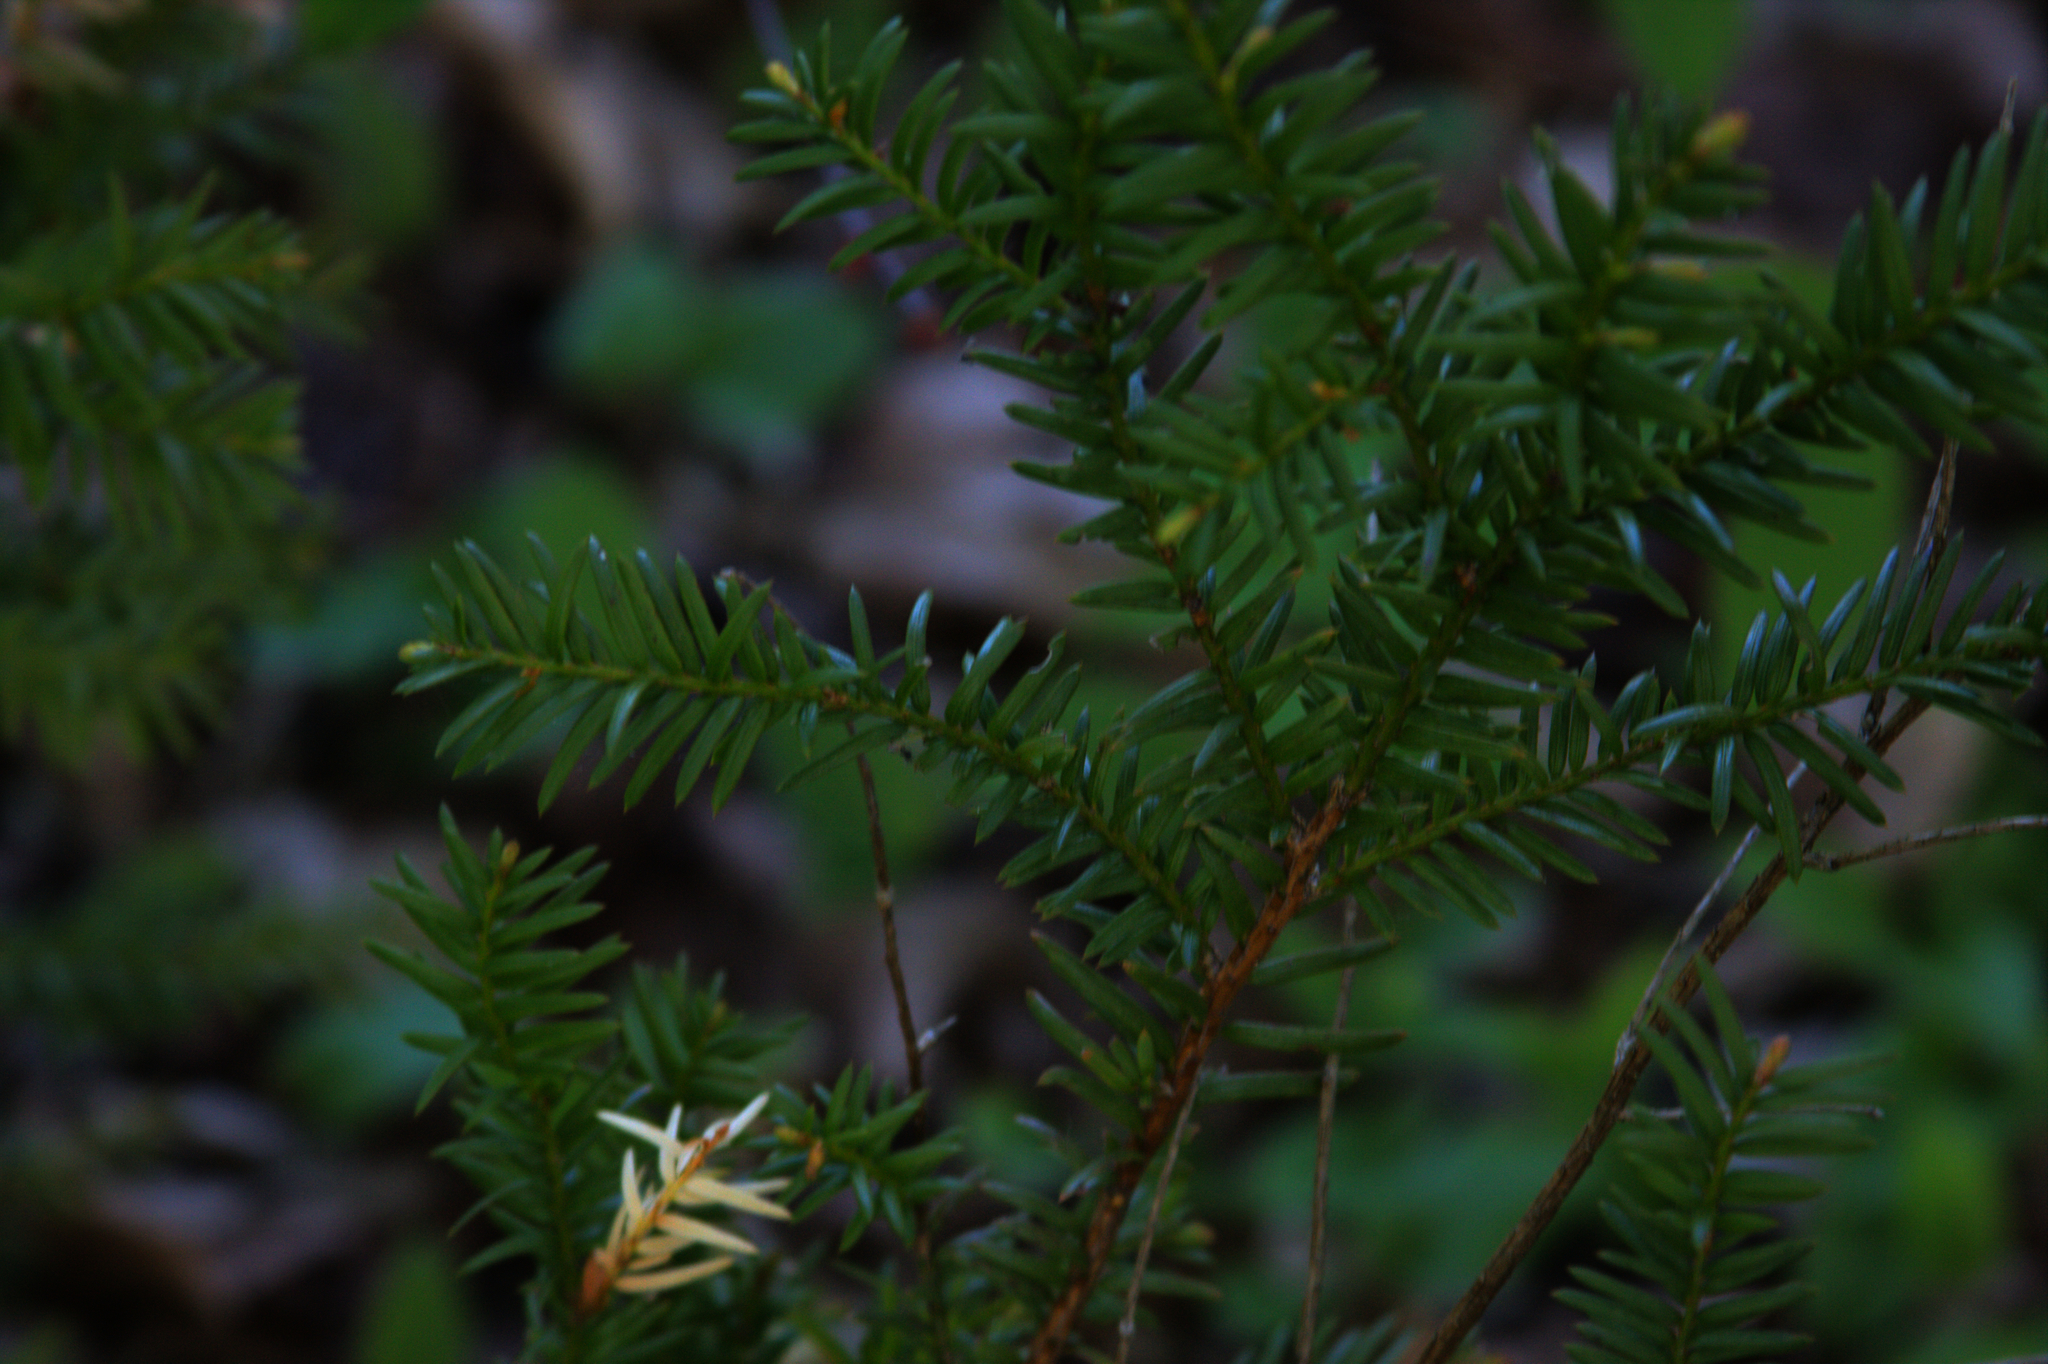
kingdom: Plantae
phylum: Tracheophyta
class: Pinopsida
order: Pinales
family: Taxaceae
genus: Taxus
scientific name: Taxus canadensis
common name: American yew
